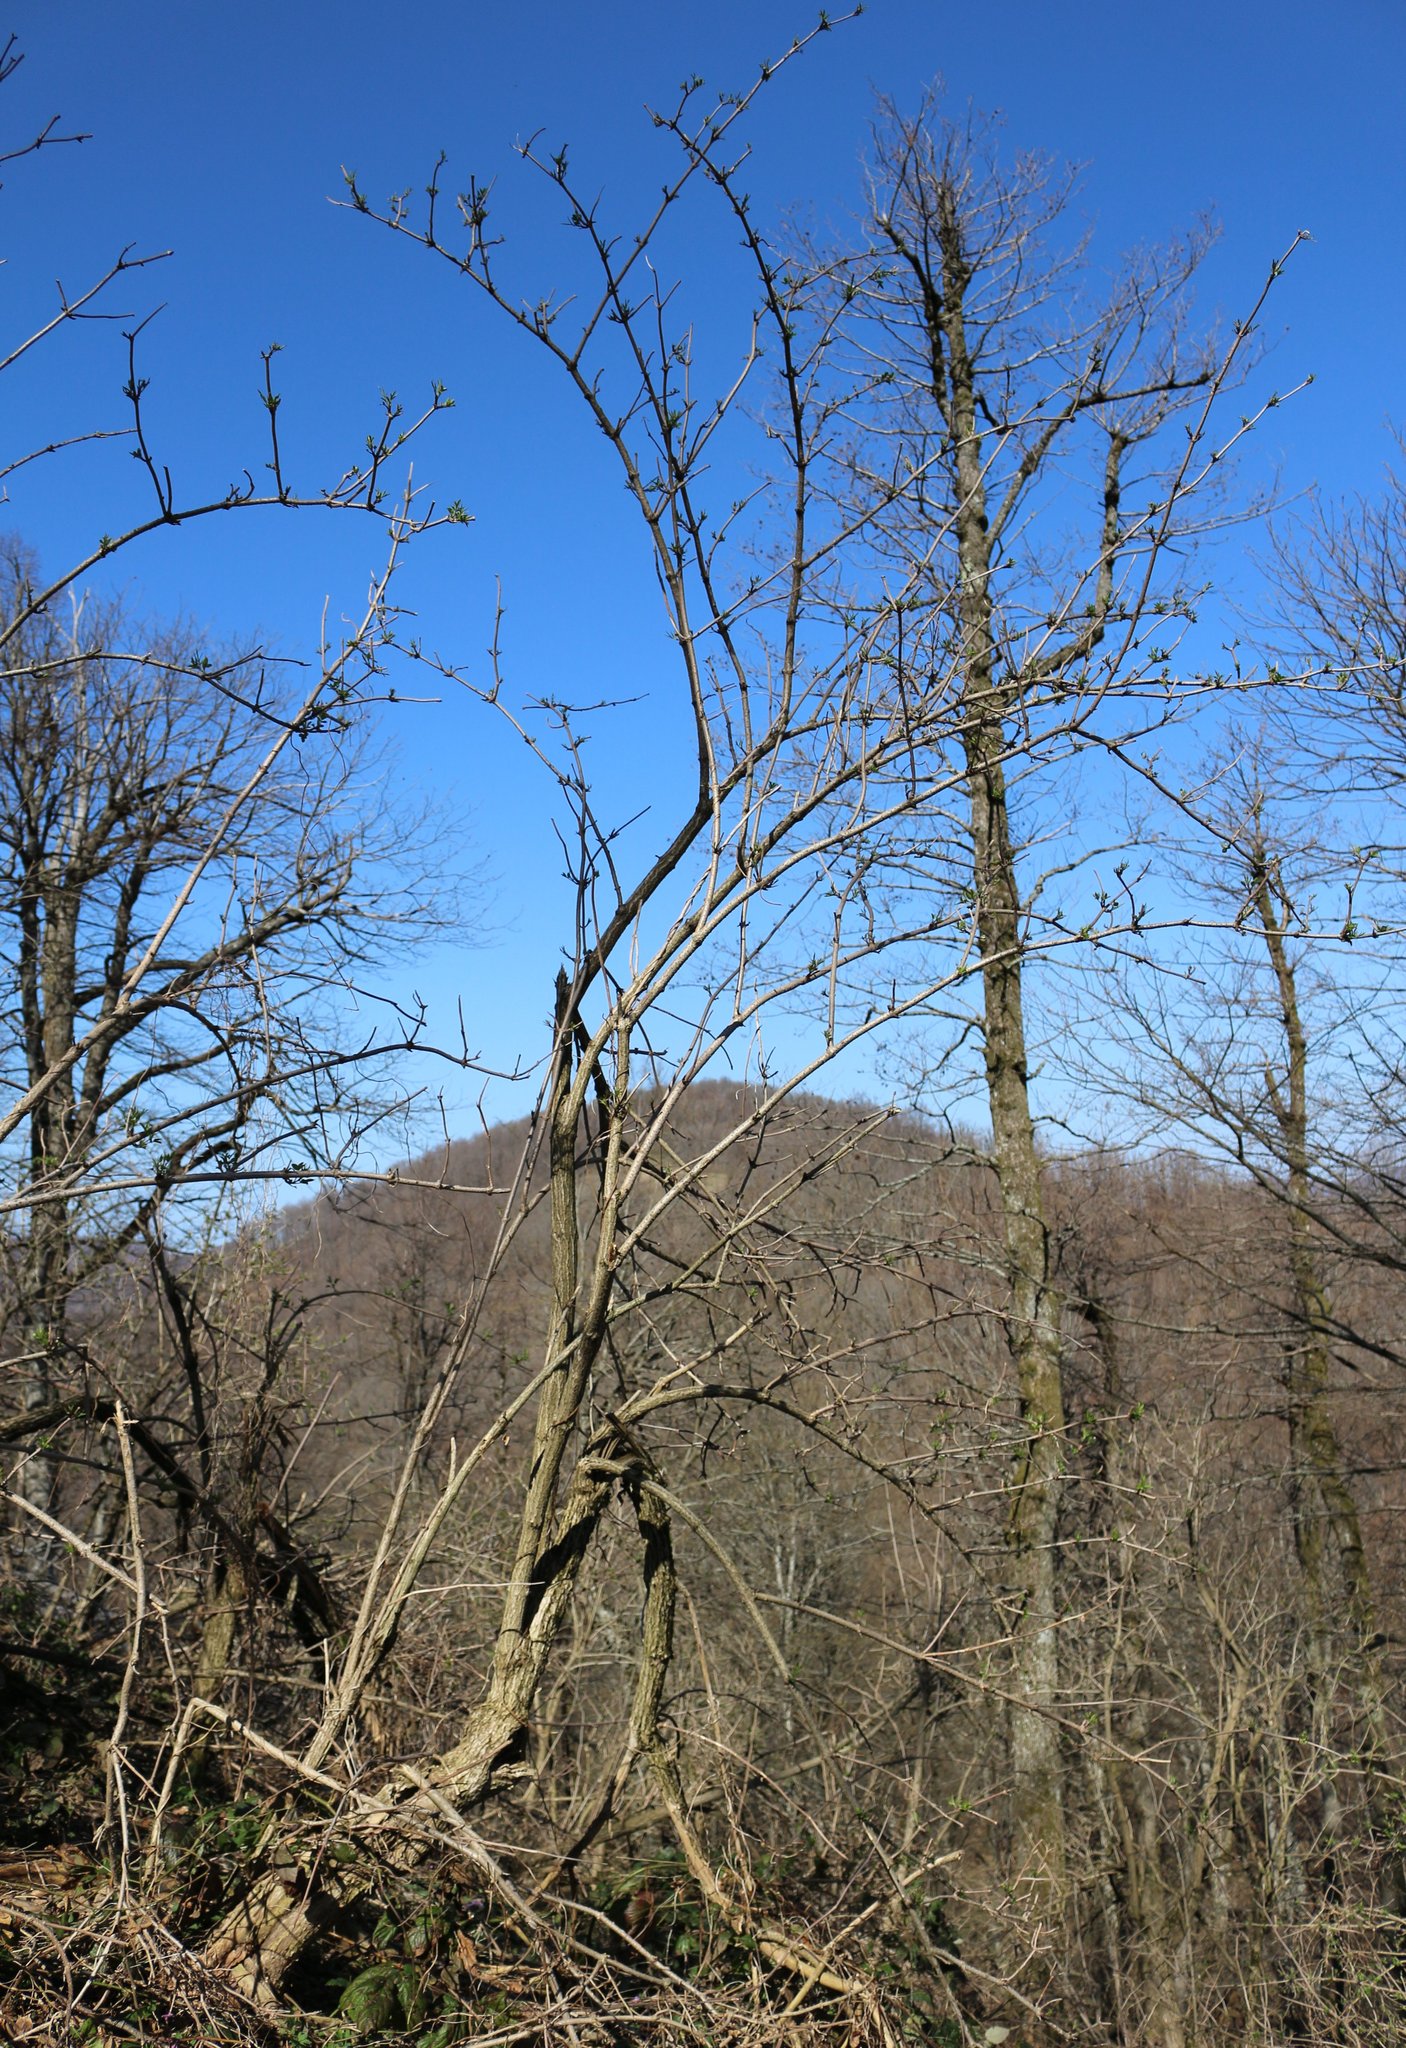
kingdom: Plantae
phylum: Tracheophyta
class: Magnoliopsida
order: Dipsacales
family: Viburnaceae
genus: Sambucus
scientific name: Sambucus nigra
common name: Elder
